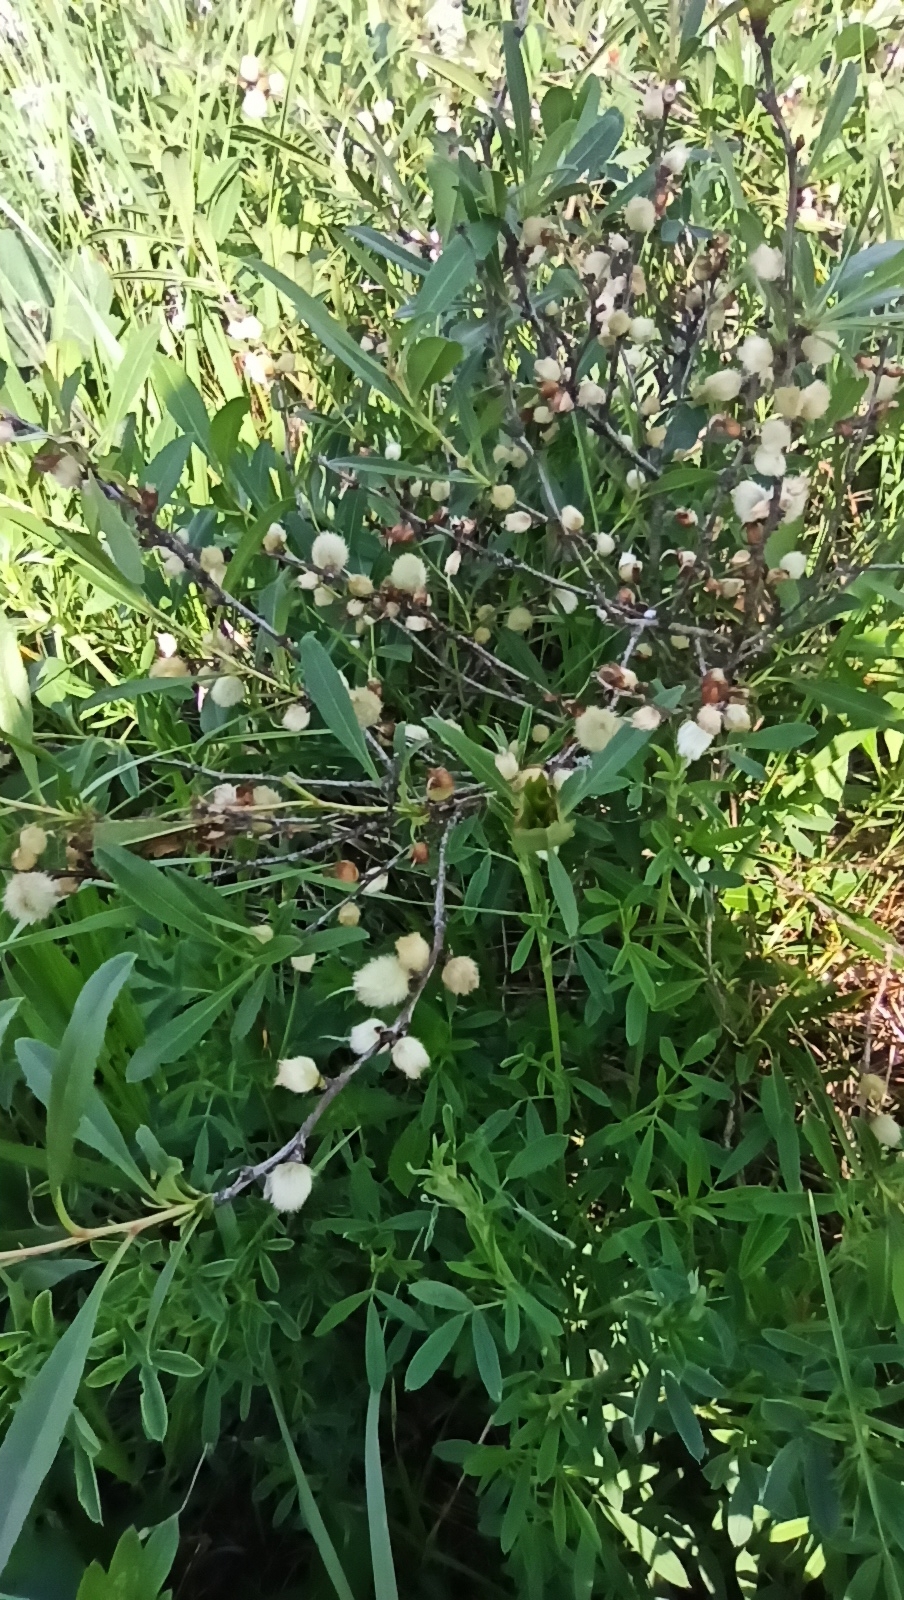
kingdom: Plantae
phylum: Tracheophyta
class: Magnoliopsida
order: Rosales
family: Rosaceae
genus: Prunus
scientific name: Prunus tenella
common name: Dwarf russian almond
